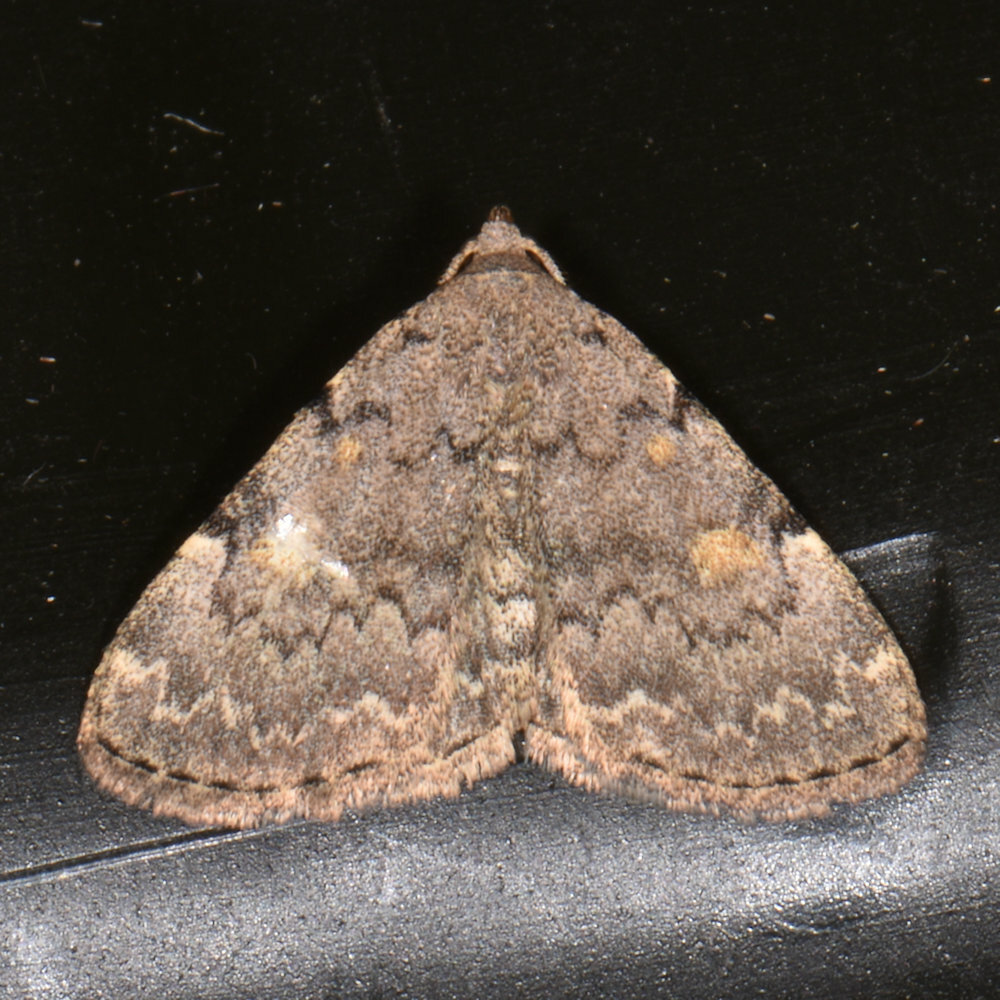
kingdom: Animalia
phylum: Arthropoda
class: Insecta
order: Lepidoptera
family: Erebidae
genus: Idia
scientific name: Idia aemula
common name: Common idia moth
